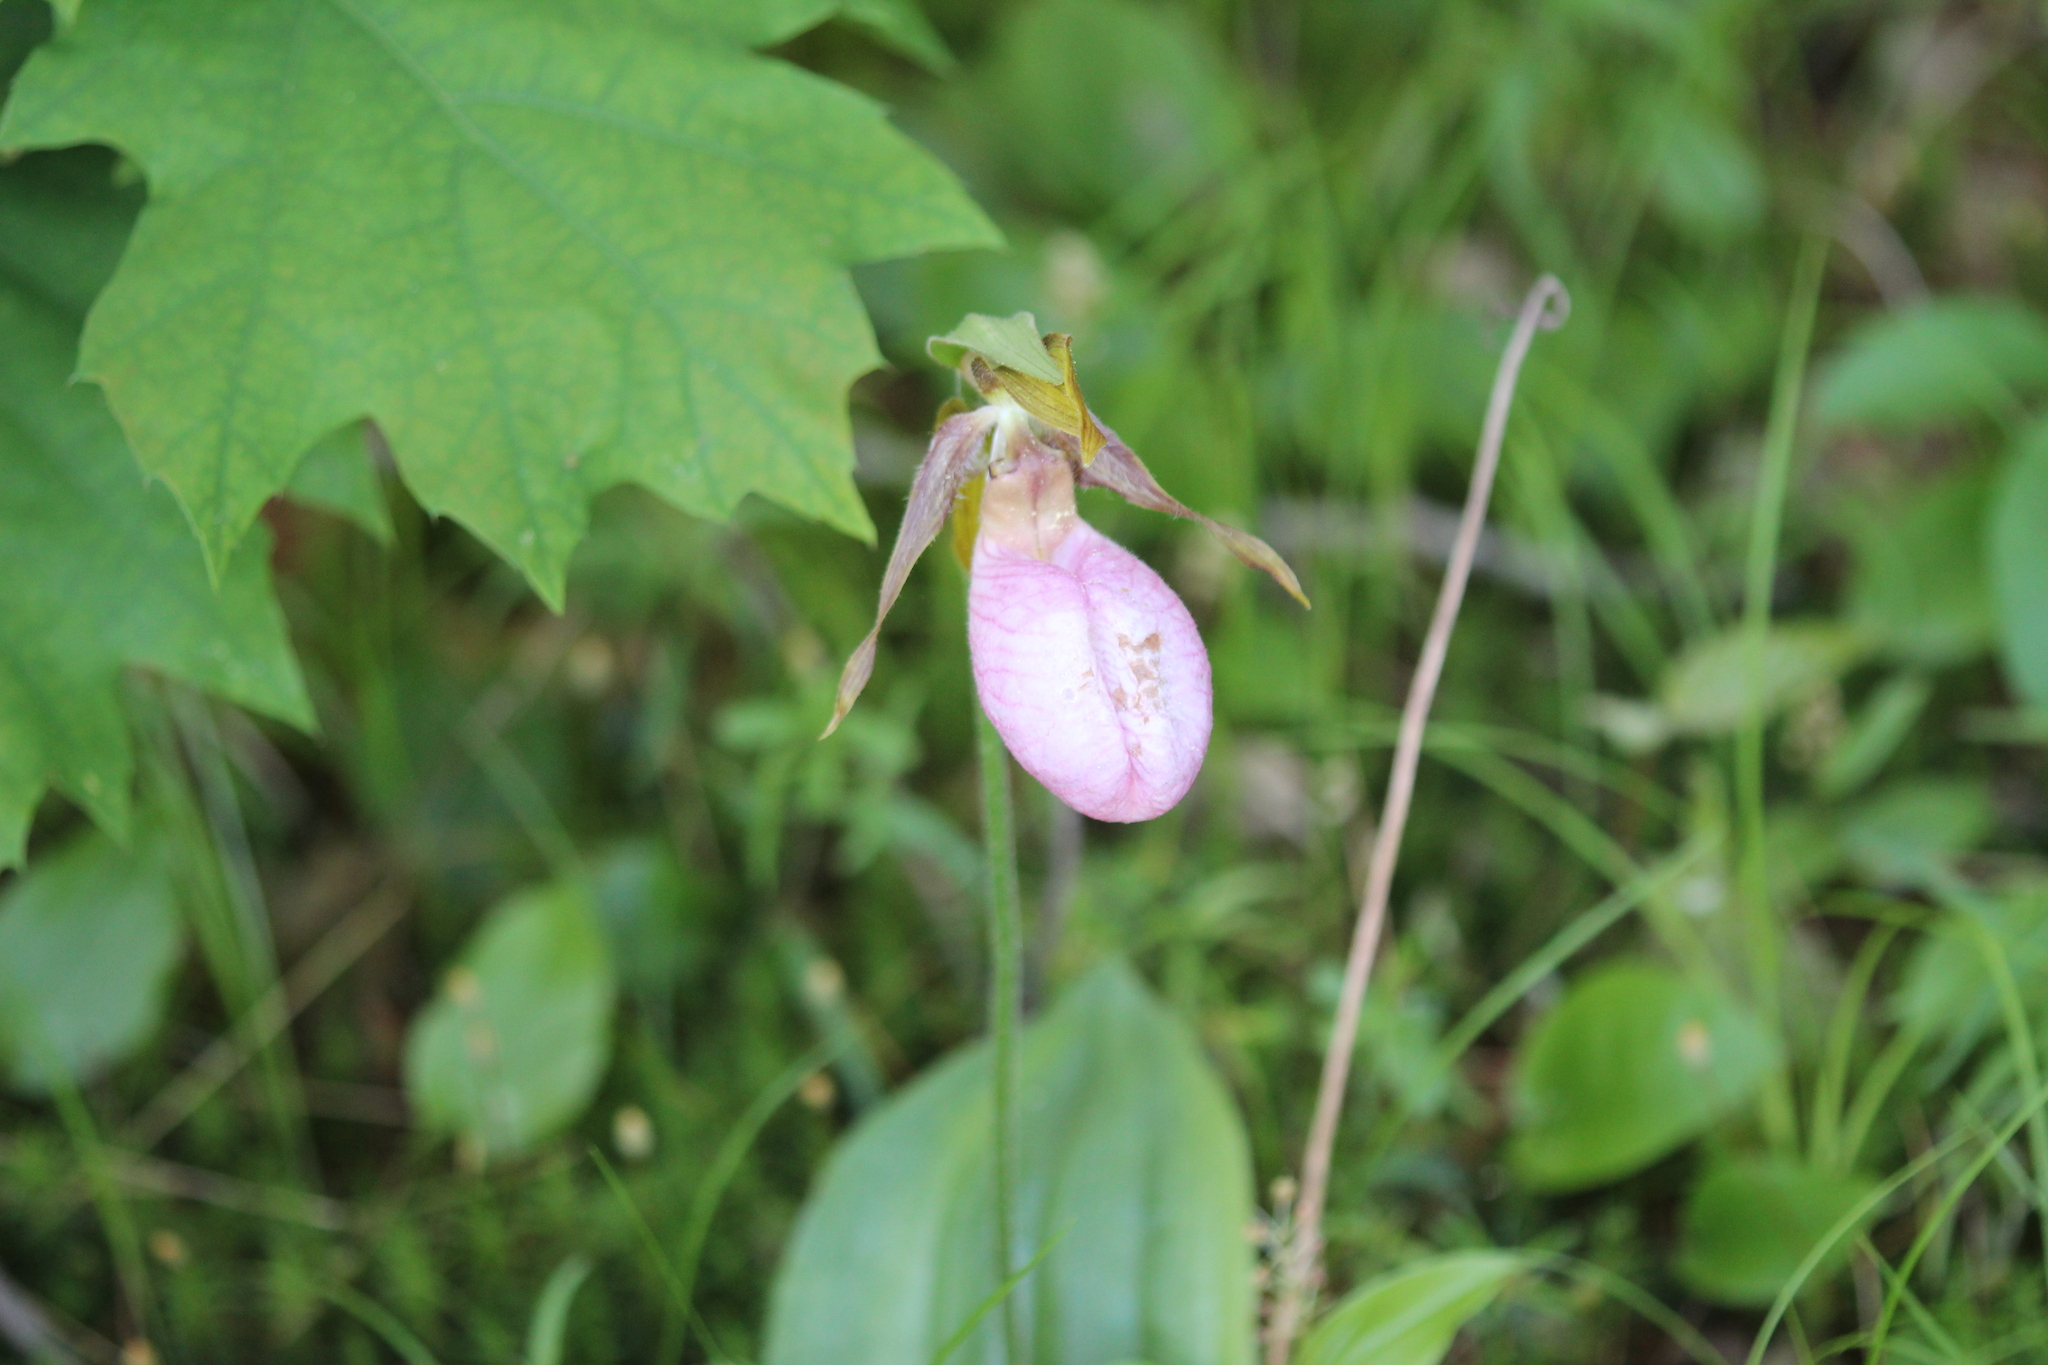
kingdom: Plantae
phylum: Tracheophyta
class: Liliopsida
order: Asparagales
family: Orchidaceae
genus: Cypripedium
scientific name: Cypripedium acaule
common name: Pink lady's-slipper
